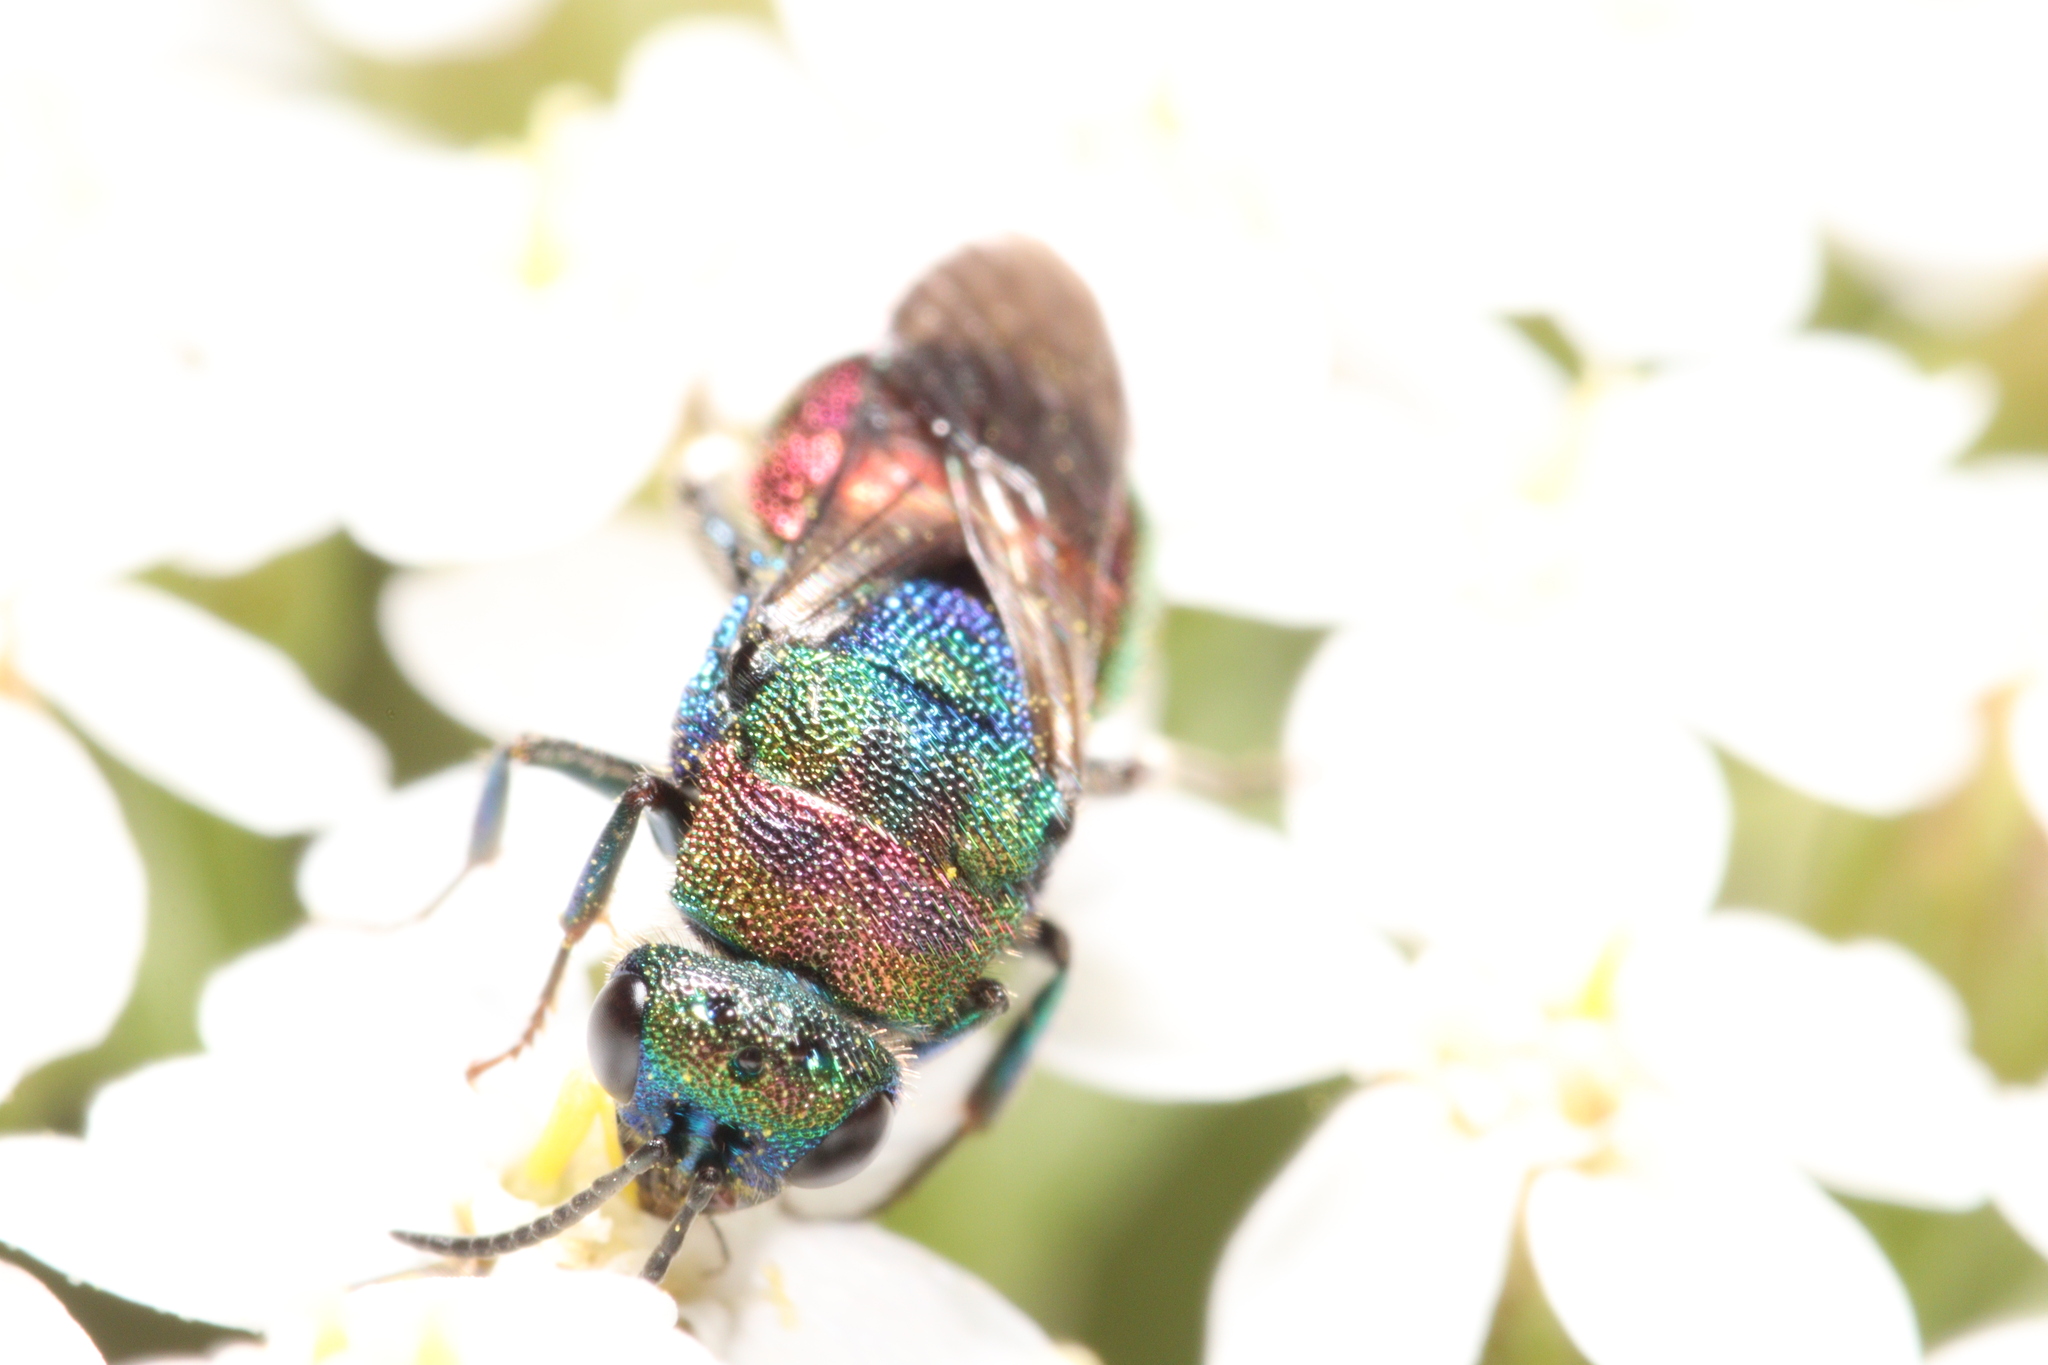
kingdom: Animalia
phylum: Arthropoda
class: Insecta
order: Hymenoptera
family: Chrysididae
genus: Hedychrum
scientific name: Hedychrum rutilans
